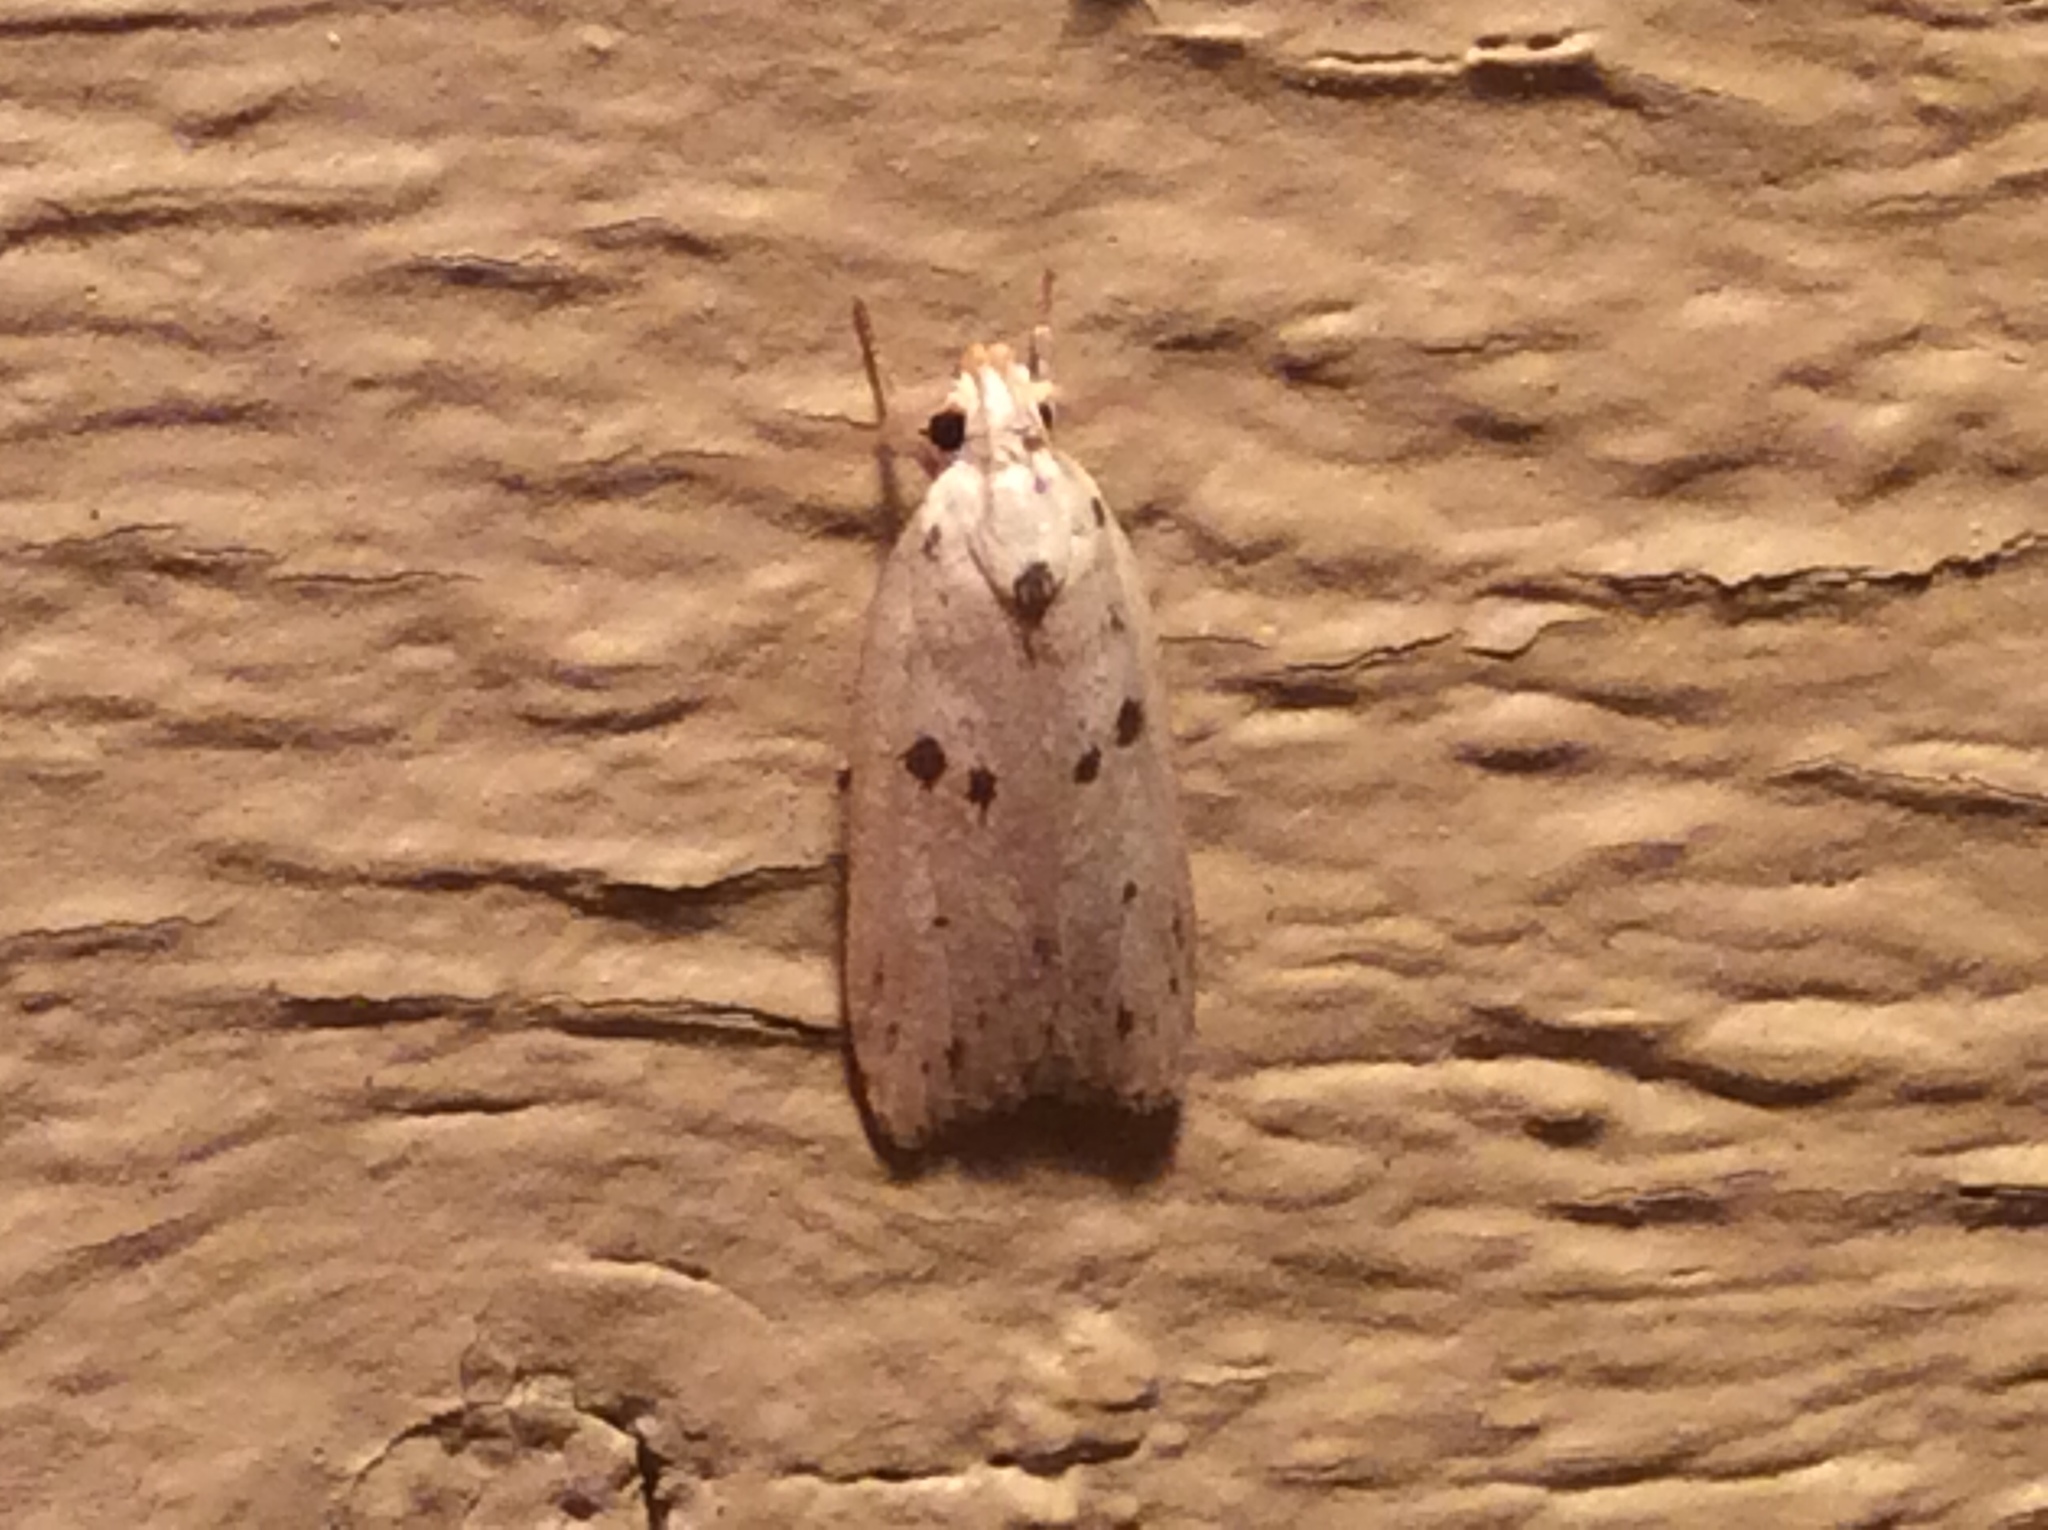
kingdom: Animalia
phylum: Arthropoda
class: Insecta
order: Lepidoptera
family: Peleopodidae
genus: Scythropiodes
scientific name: Scythropiodes issikii
